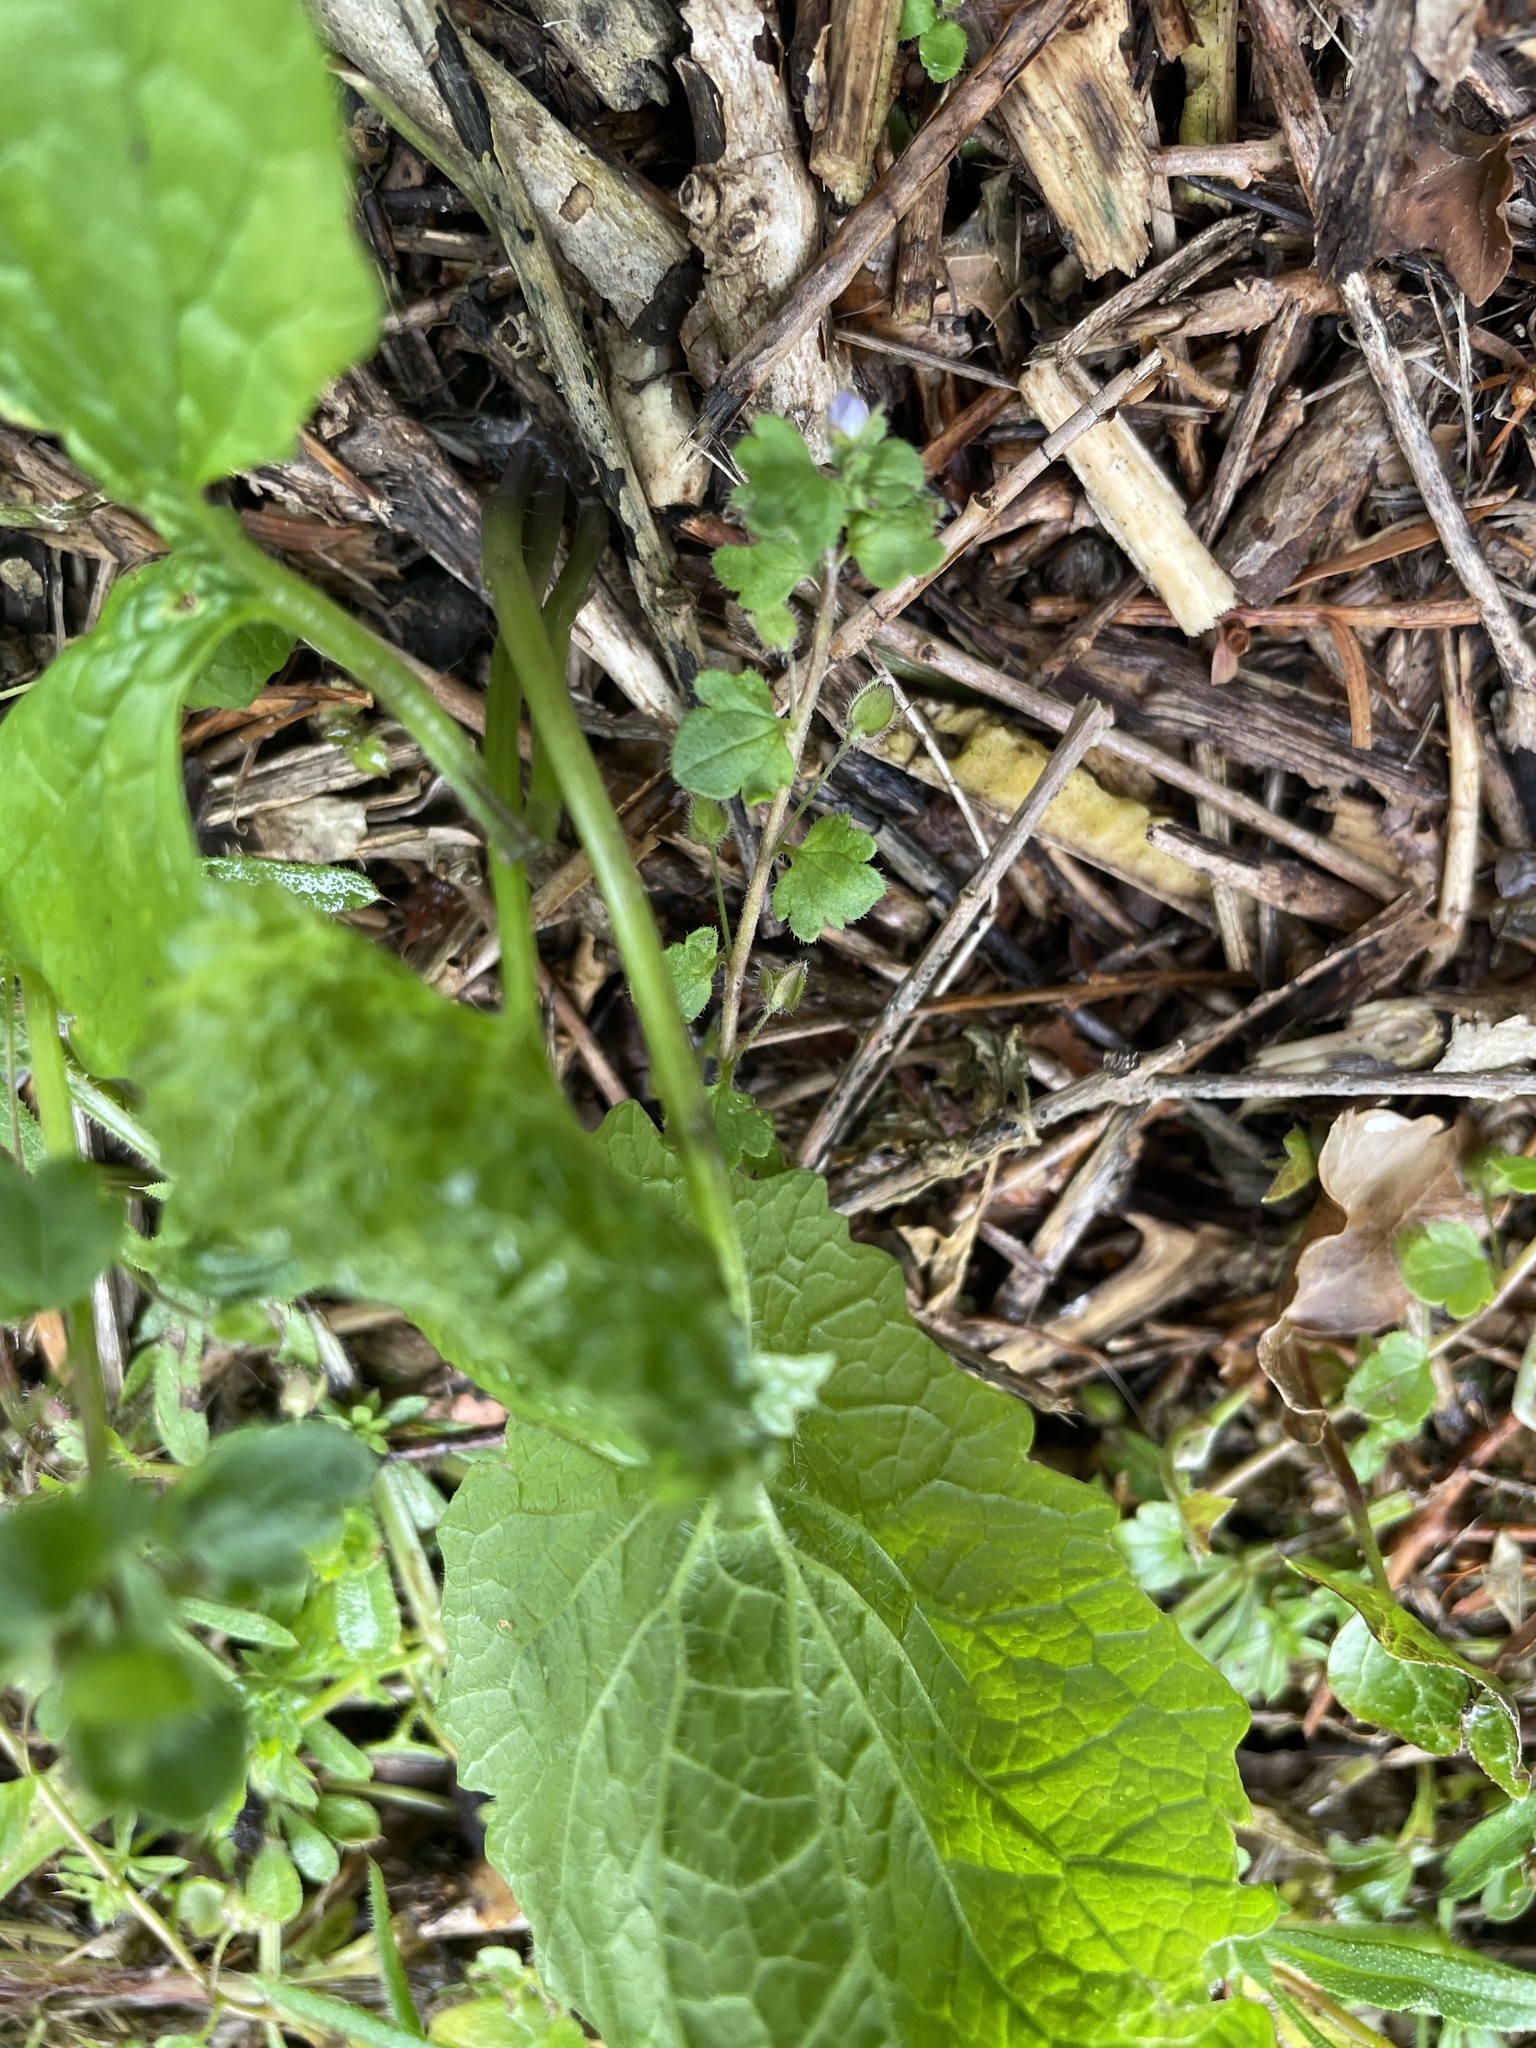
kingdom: Plantae
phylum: Tracheophyta
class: Magnoliopsida
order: Brassicales
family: Brassicaceae
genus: Alliaria
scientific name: Alliaria petiolata
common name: Garlic mustard
